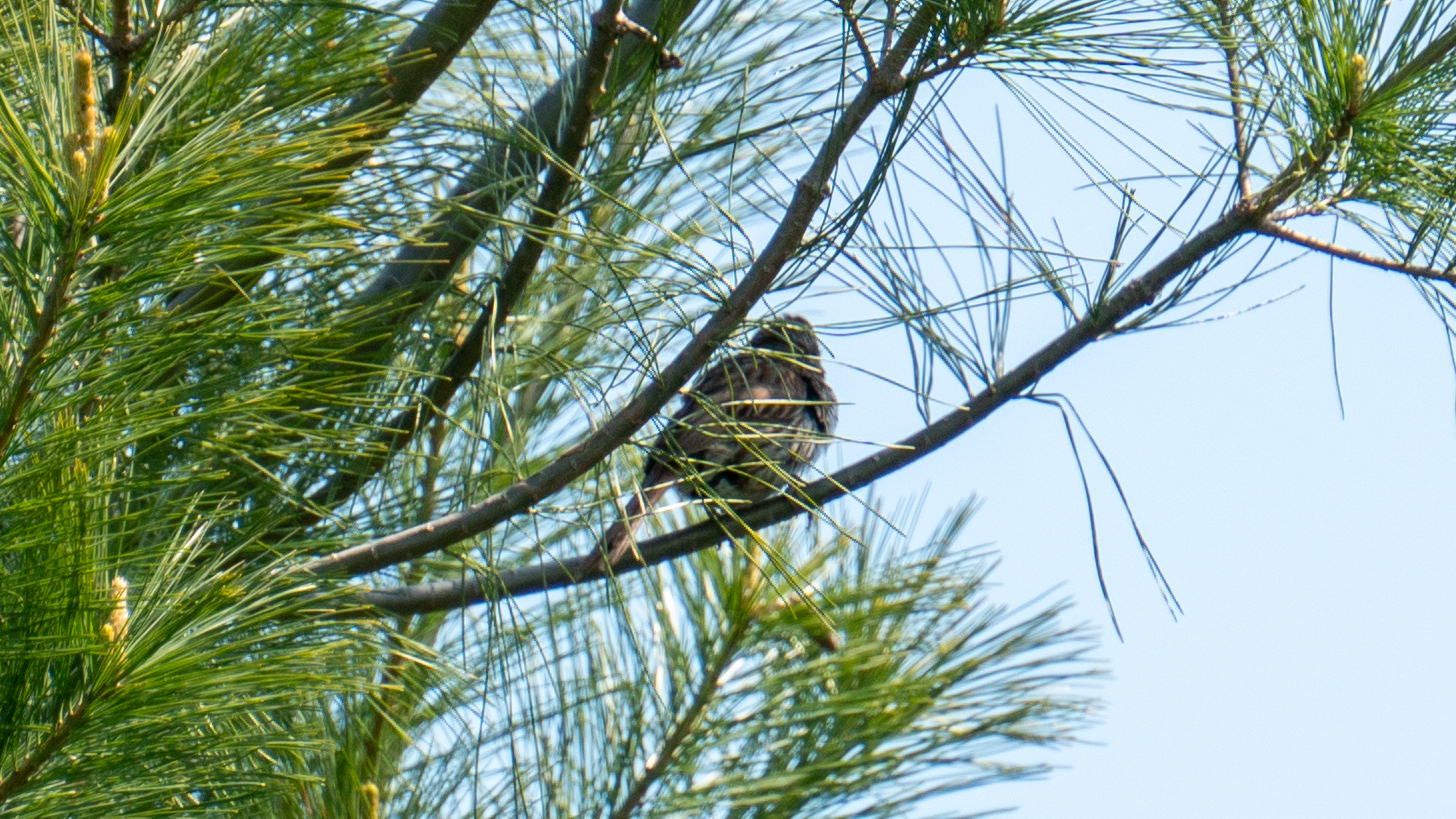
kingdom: Animalia
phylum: Chordata
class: Aves
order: Passeriformes
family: Passerellidae
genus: Melospiza
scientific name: Melospiza melodia
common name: Song sparrow
